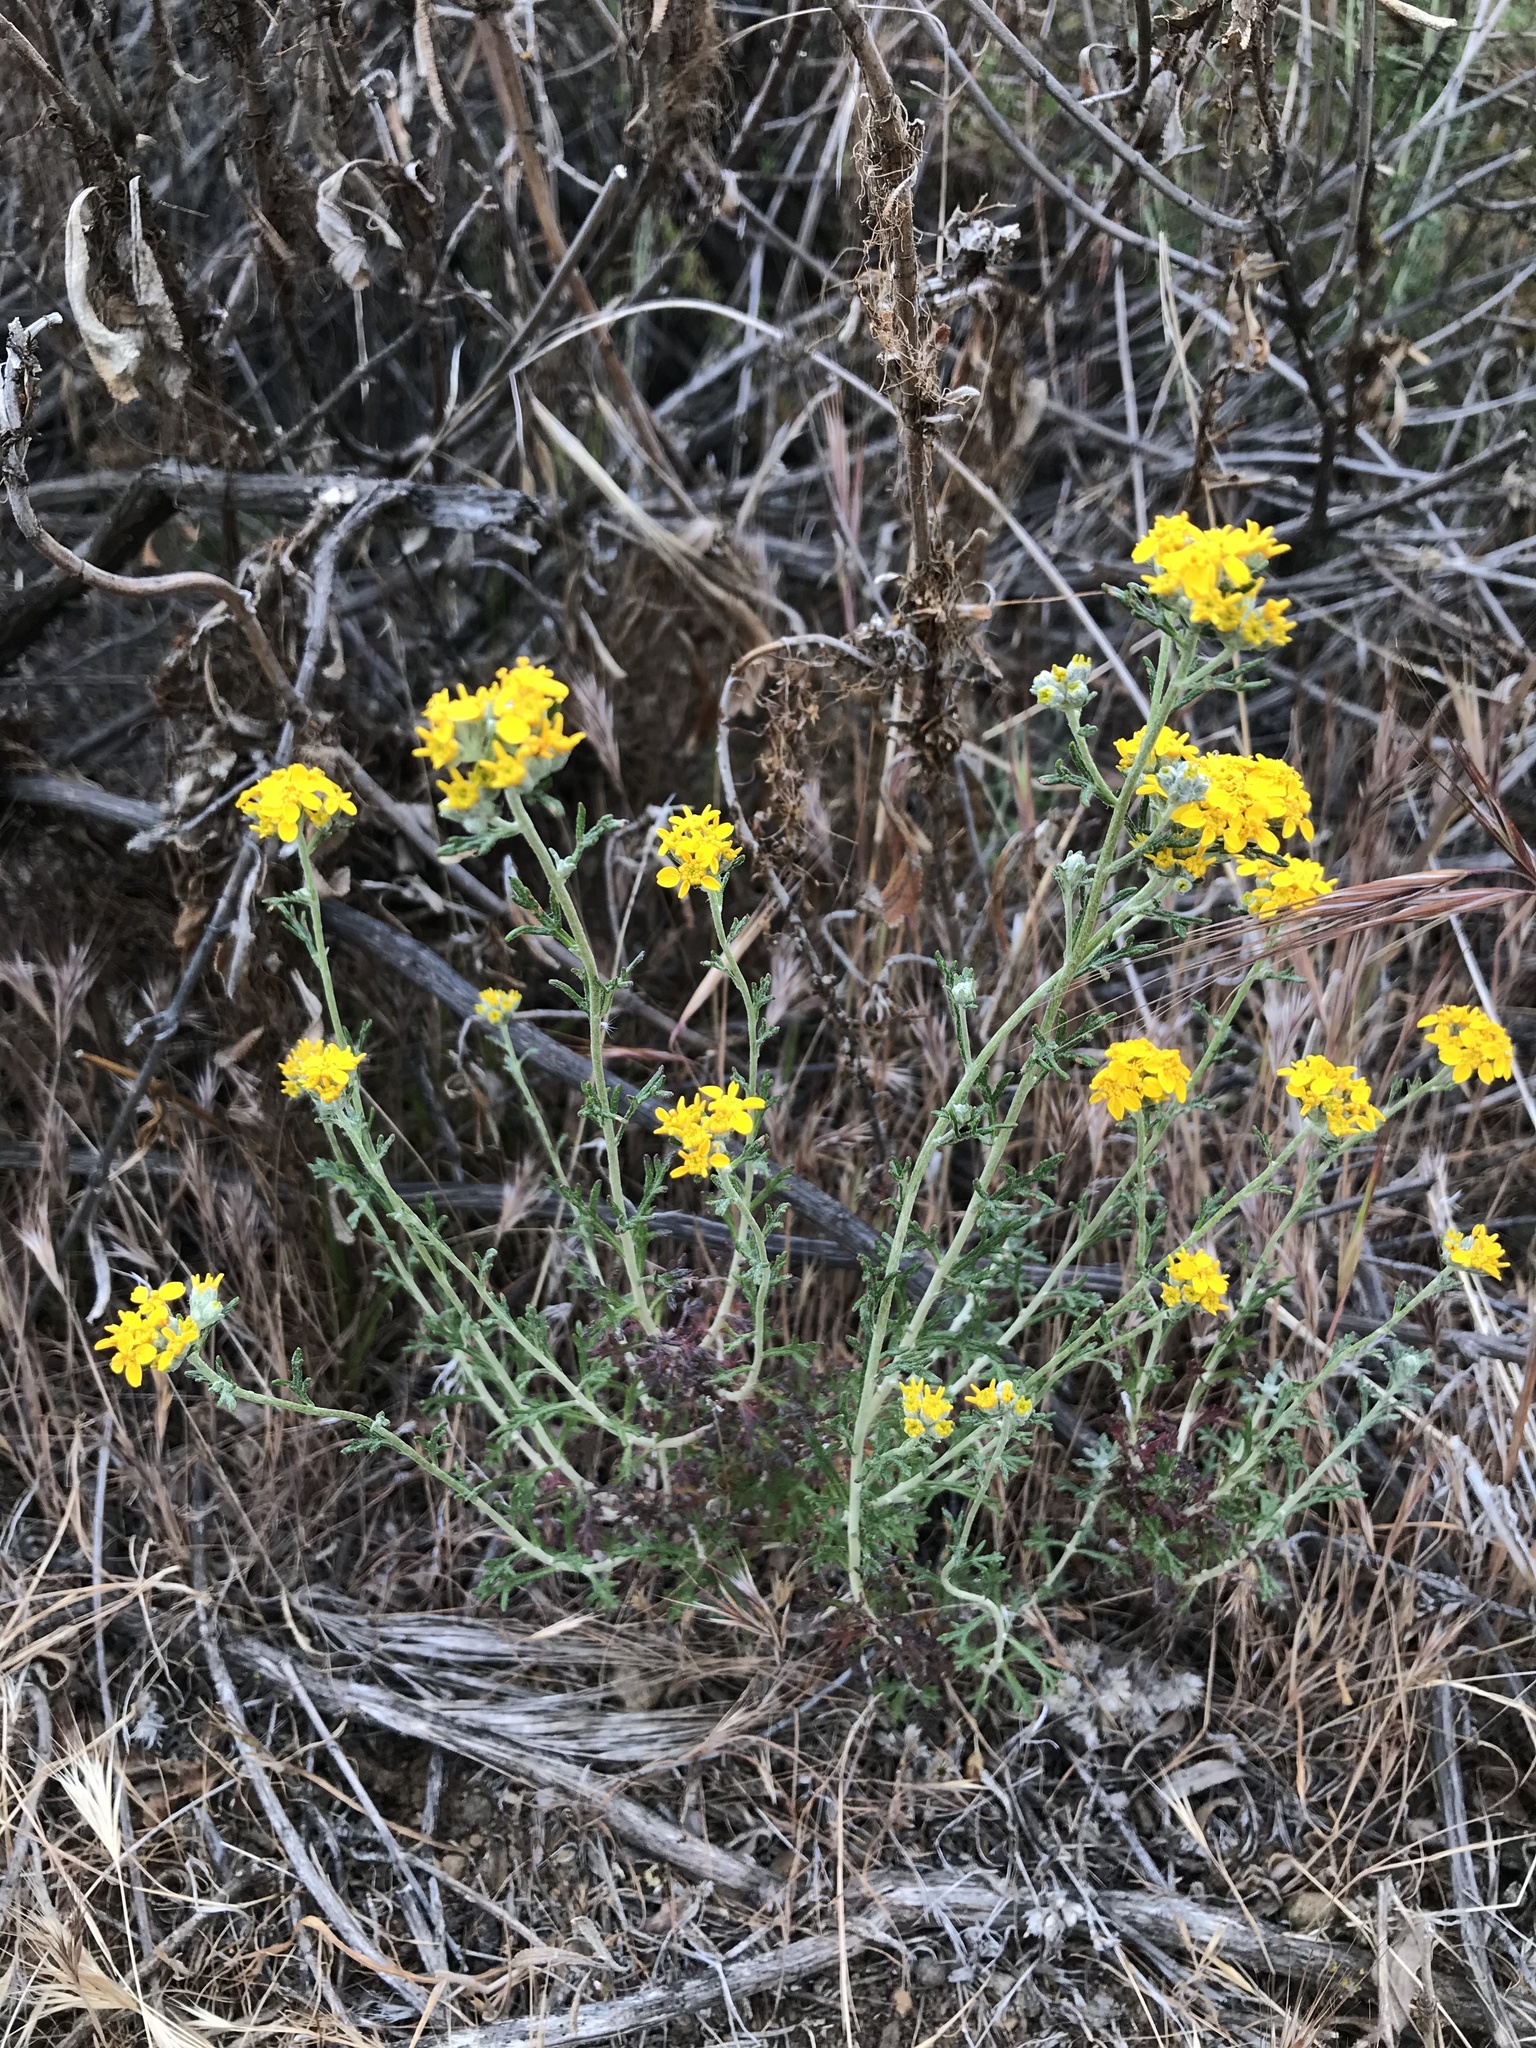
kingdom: Plantae
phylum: Tracheophyta
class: Magnoliopsida
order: Asterales
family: Asteraceae
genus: Eriophyllum
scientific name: Eriophyllum confertiflorum
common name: Golden-yarrow
